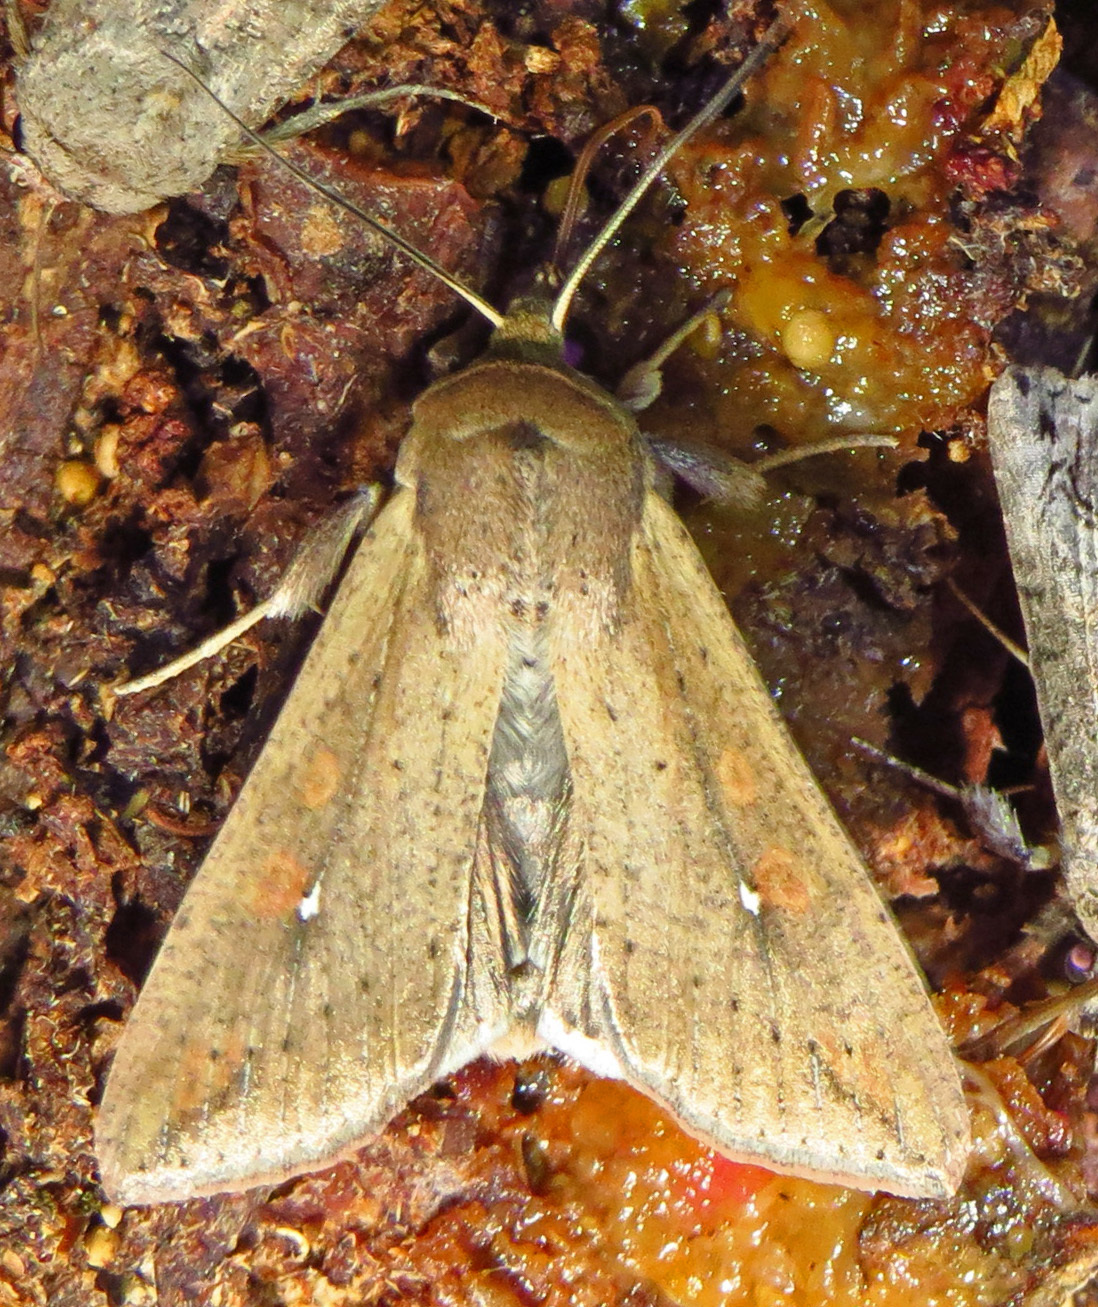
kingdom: Animalia
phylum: Arthropoda
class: Insecta
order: Lepidoptera
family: Noctuidae
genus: Mythimna
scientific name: Mythimna unipuncta
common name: White-speck
